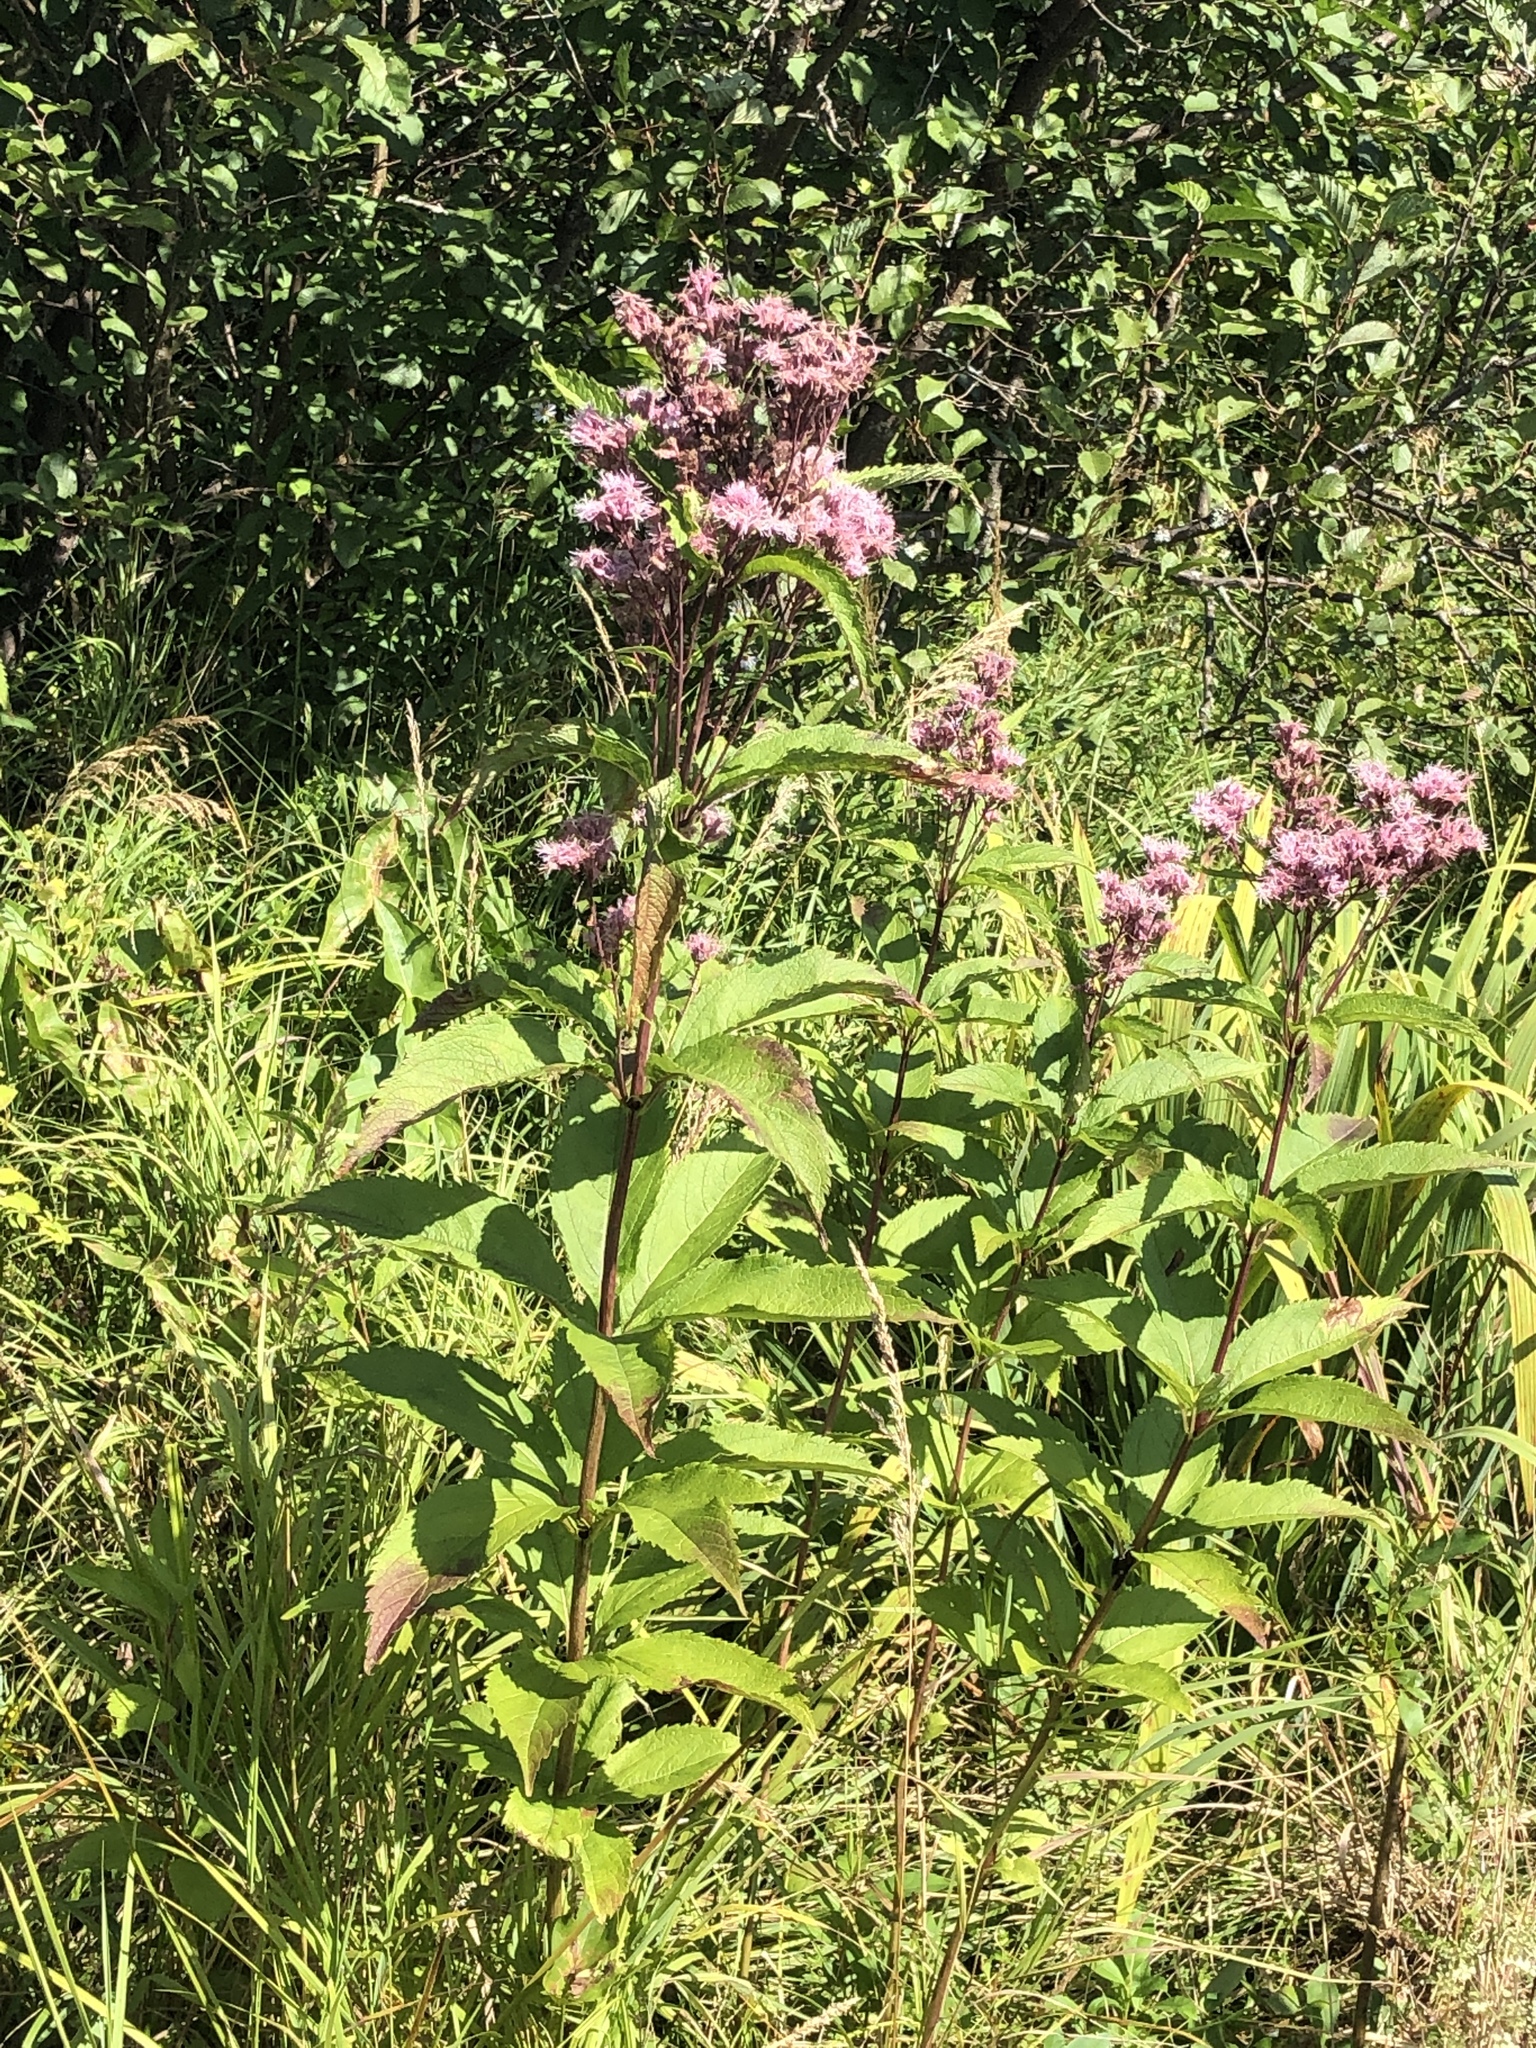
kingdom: Plantae
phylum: Tracheophyta
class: Magnoliopsida
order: Asterales
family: Asteraceae
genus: Eutrochium
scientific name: Eutrochium maculatum
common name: Spotted joe pye weed
